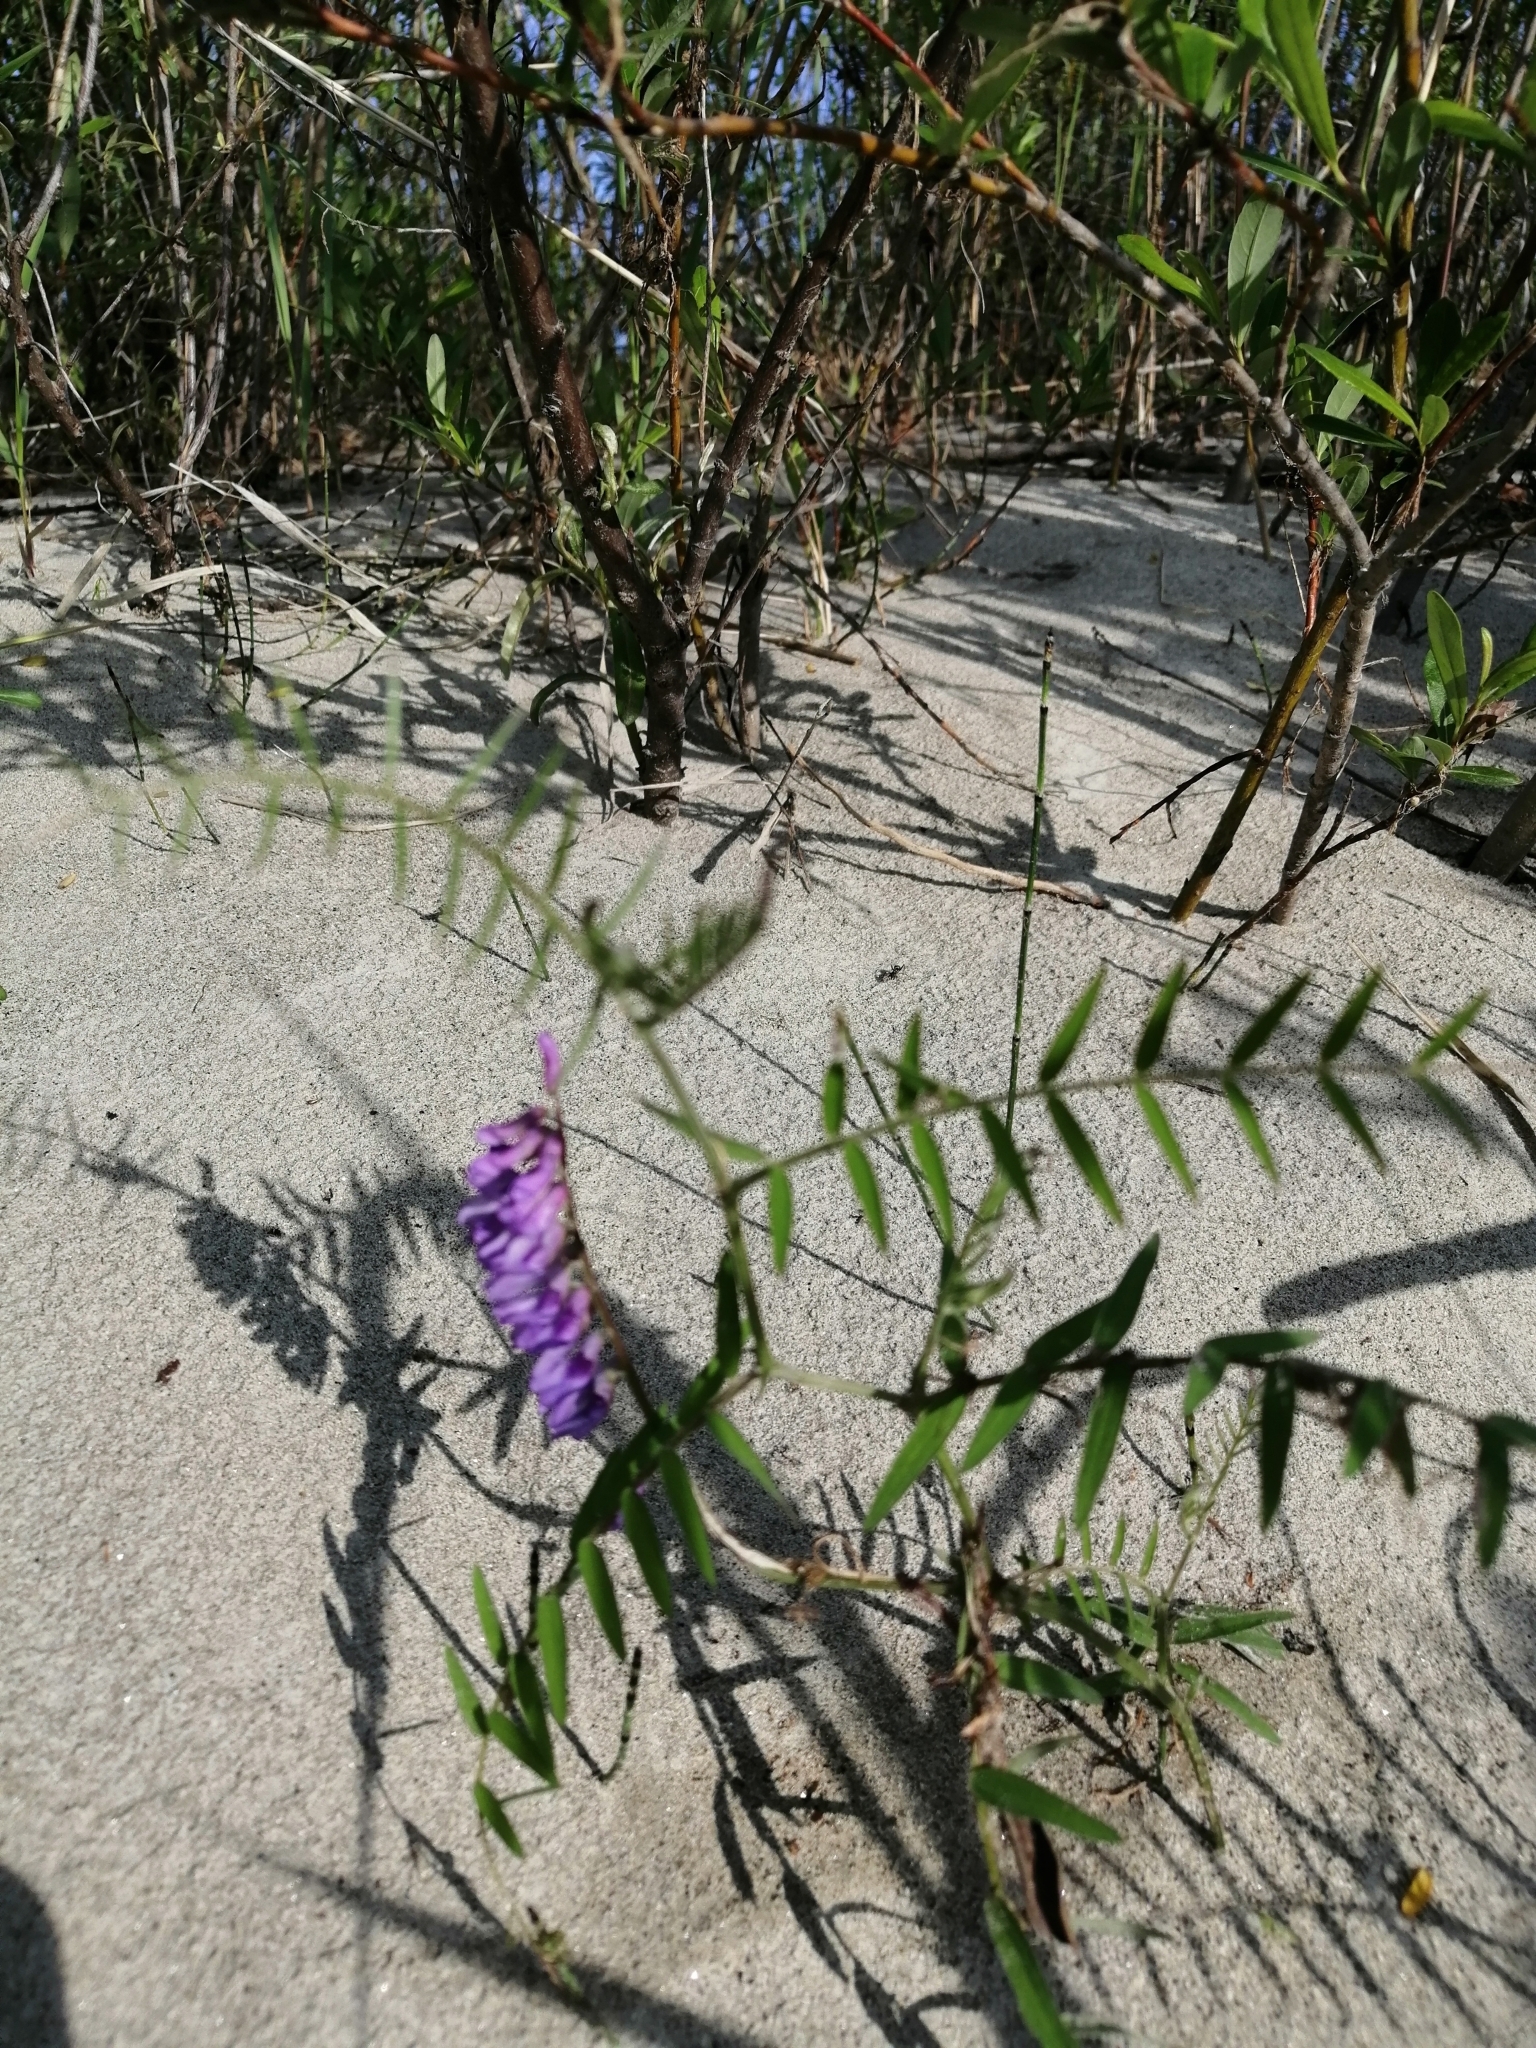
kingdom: Plantae
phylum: Tracheophyta
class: Magnoliopsida
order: Fabales
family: Fabaceae
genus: Vicia
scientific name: Vicia cracca
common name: Bird vetch
